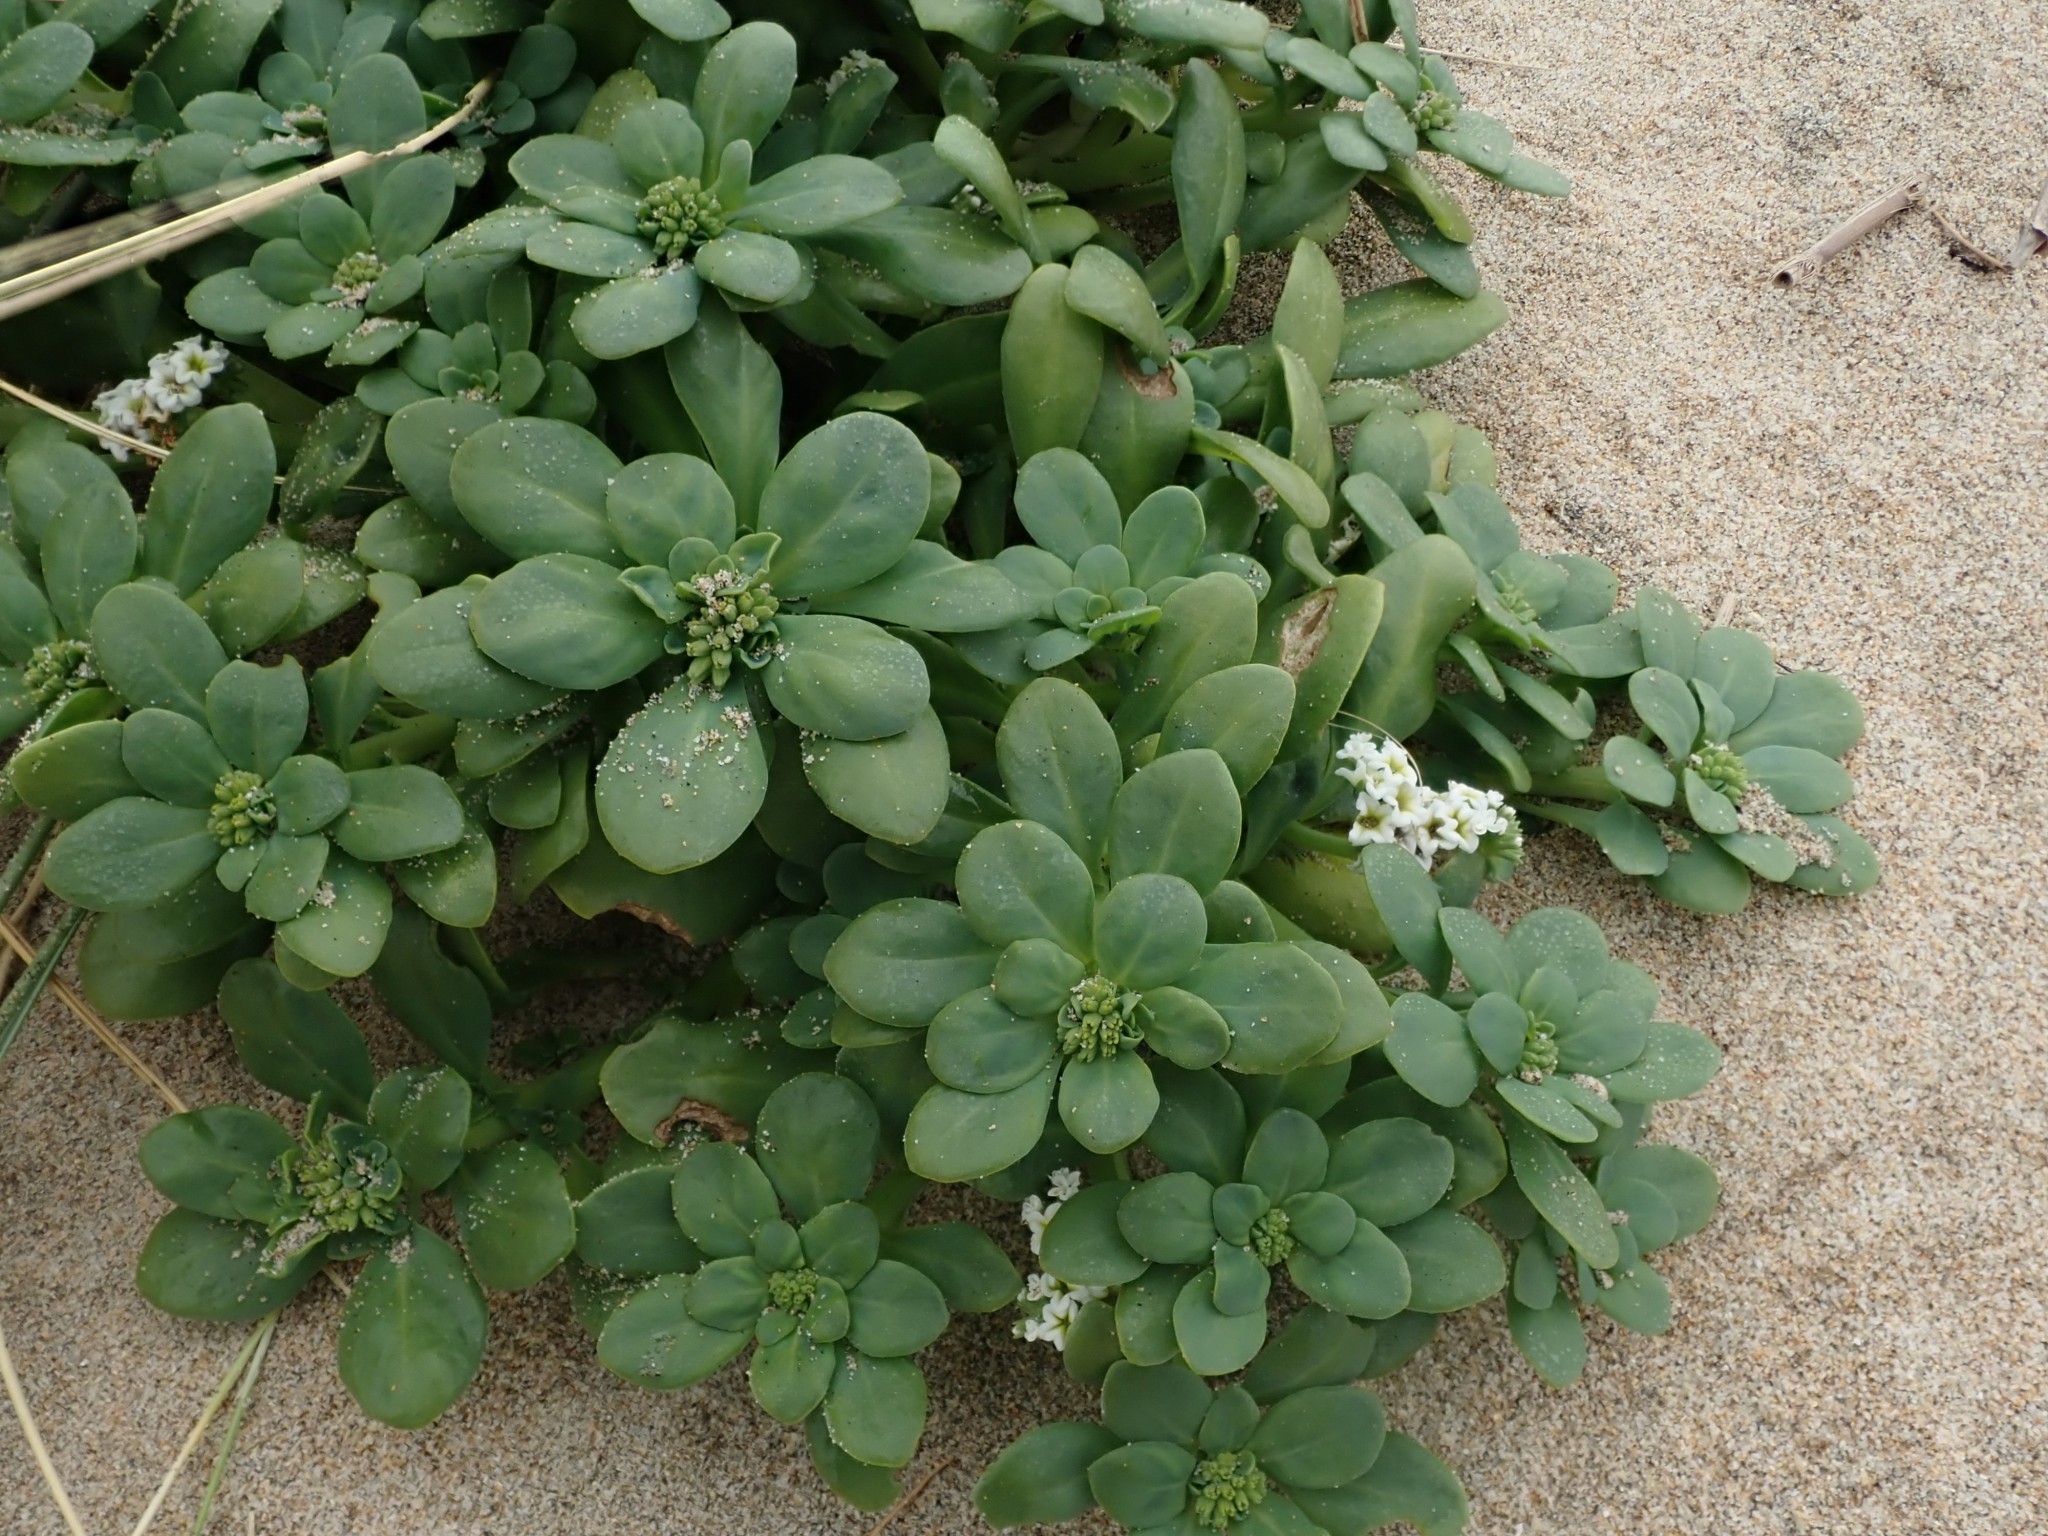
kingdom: Plantae
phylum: Tracheophyta
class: Magnoliopsida
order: Boraginales
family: Heliotropiaceae
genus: Heliotropium
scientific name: Heliotropium curassavicum
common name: Seaside heliotrope
